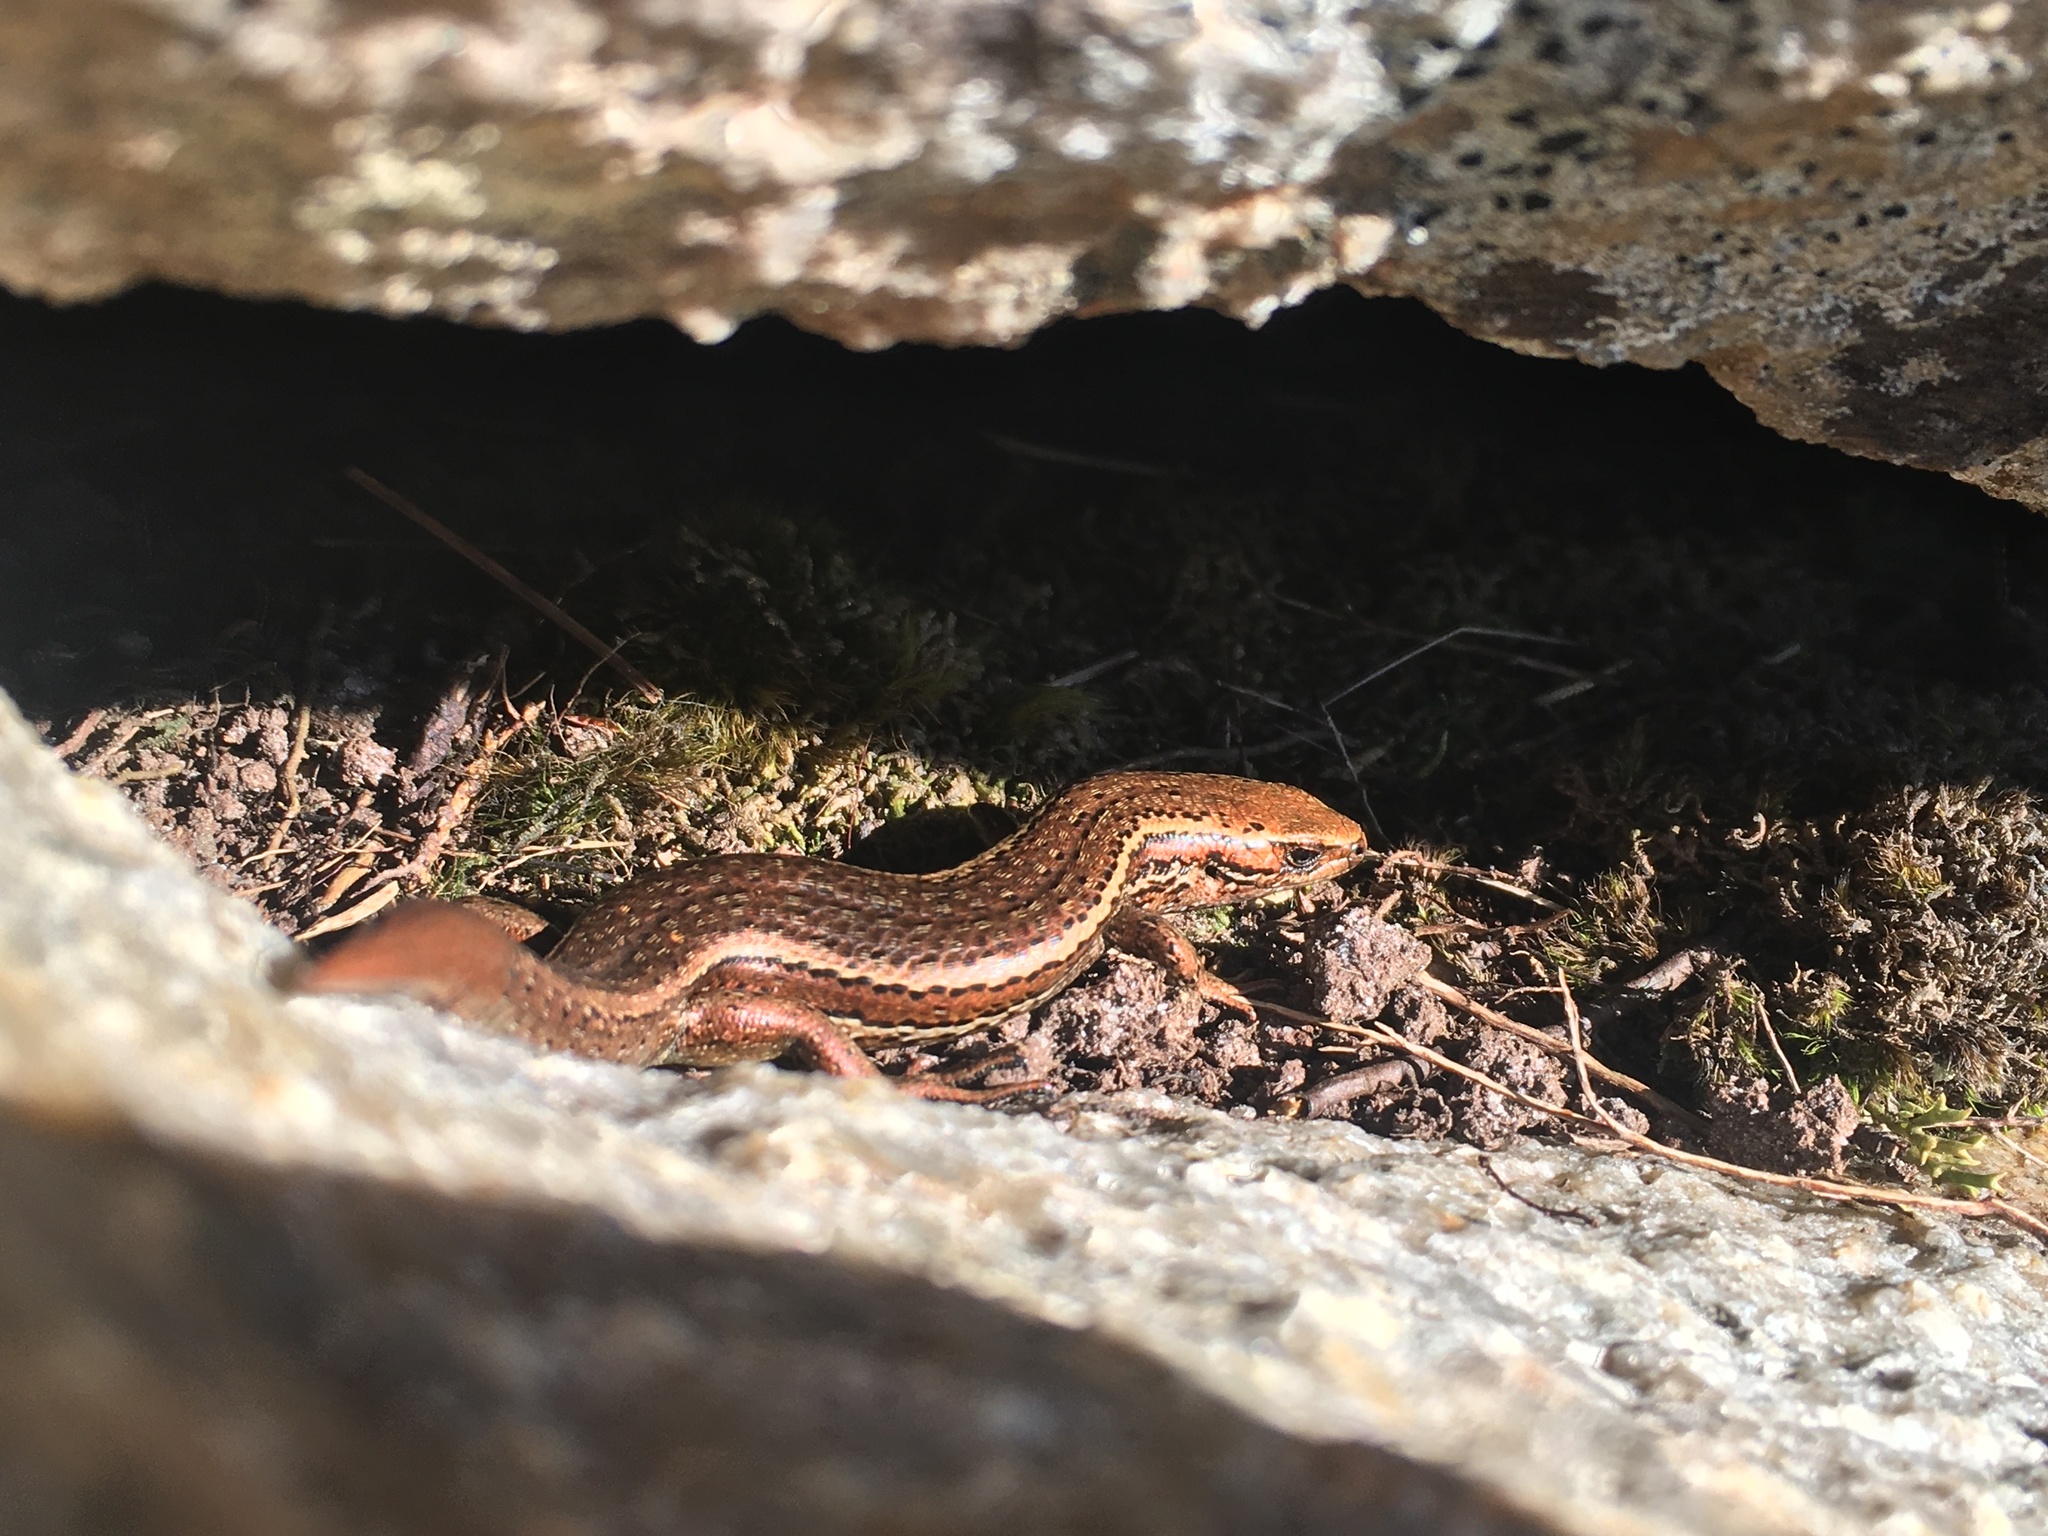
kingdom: Animalia
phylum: Chordata
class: Squamata
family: Scincidae
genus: Oligosoma
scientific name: Oligosoma notosaurus
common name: Southern skink
